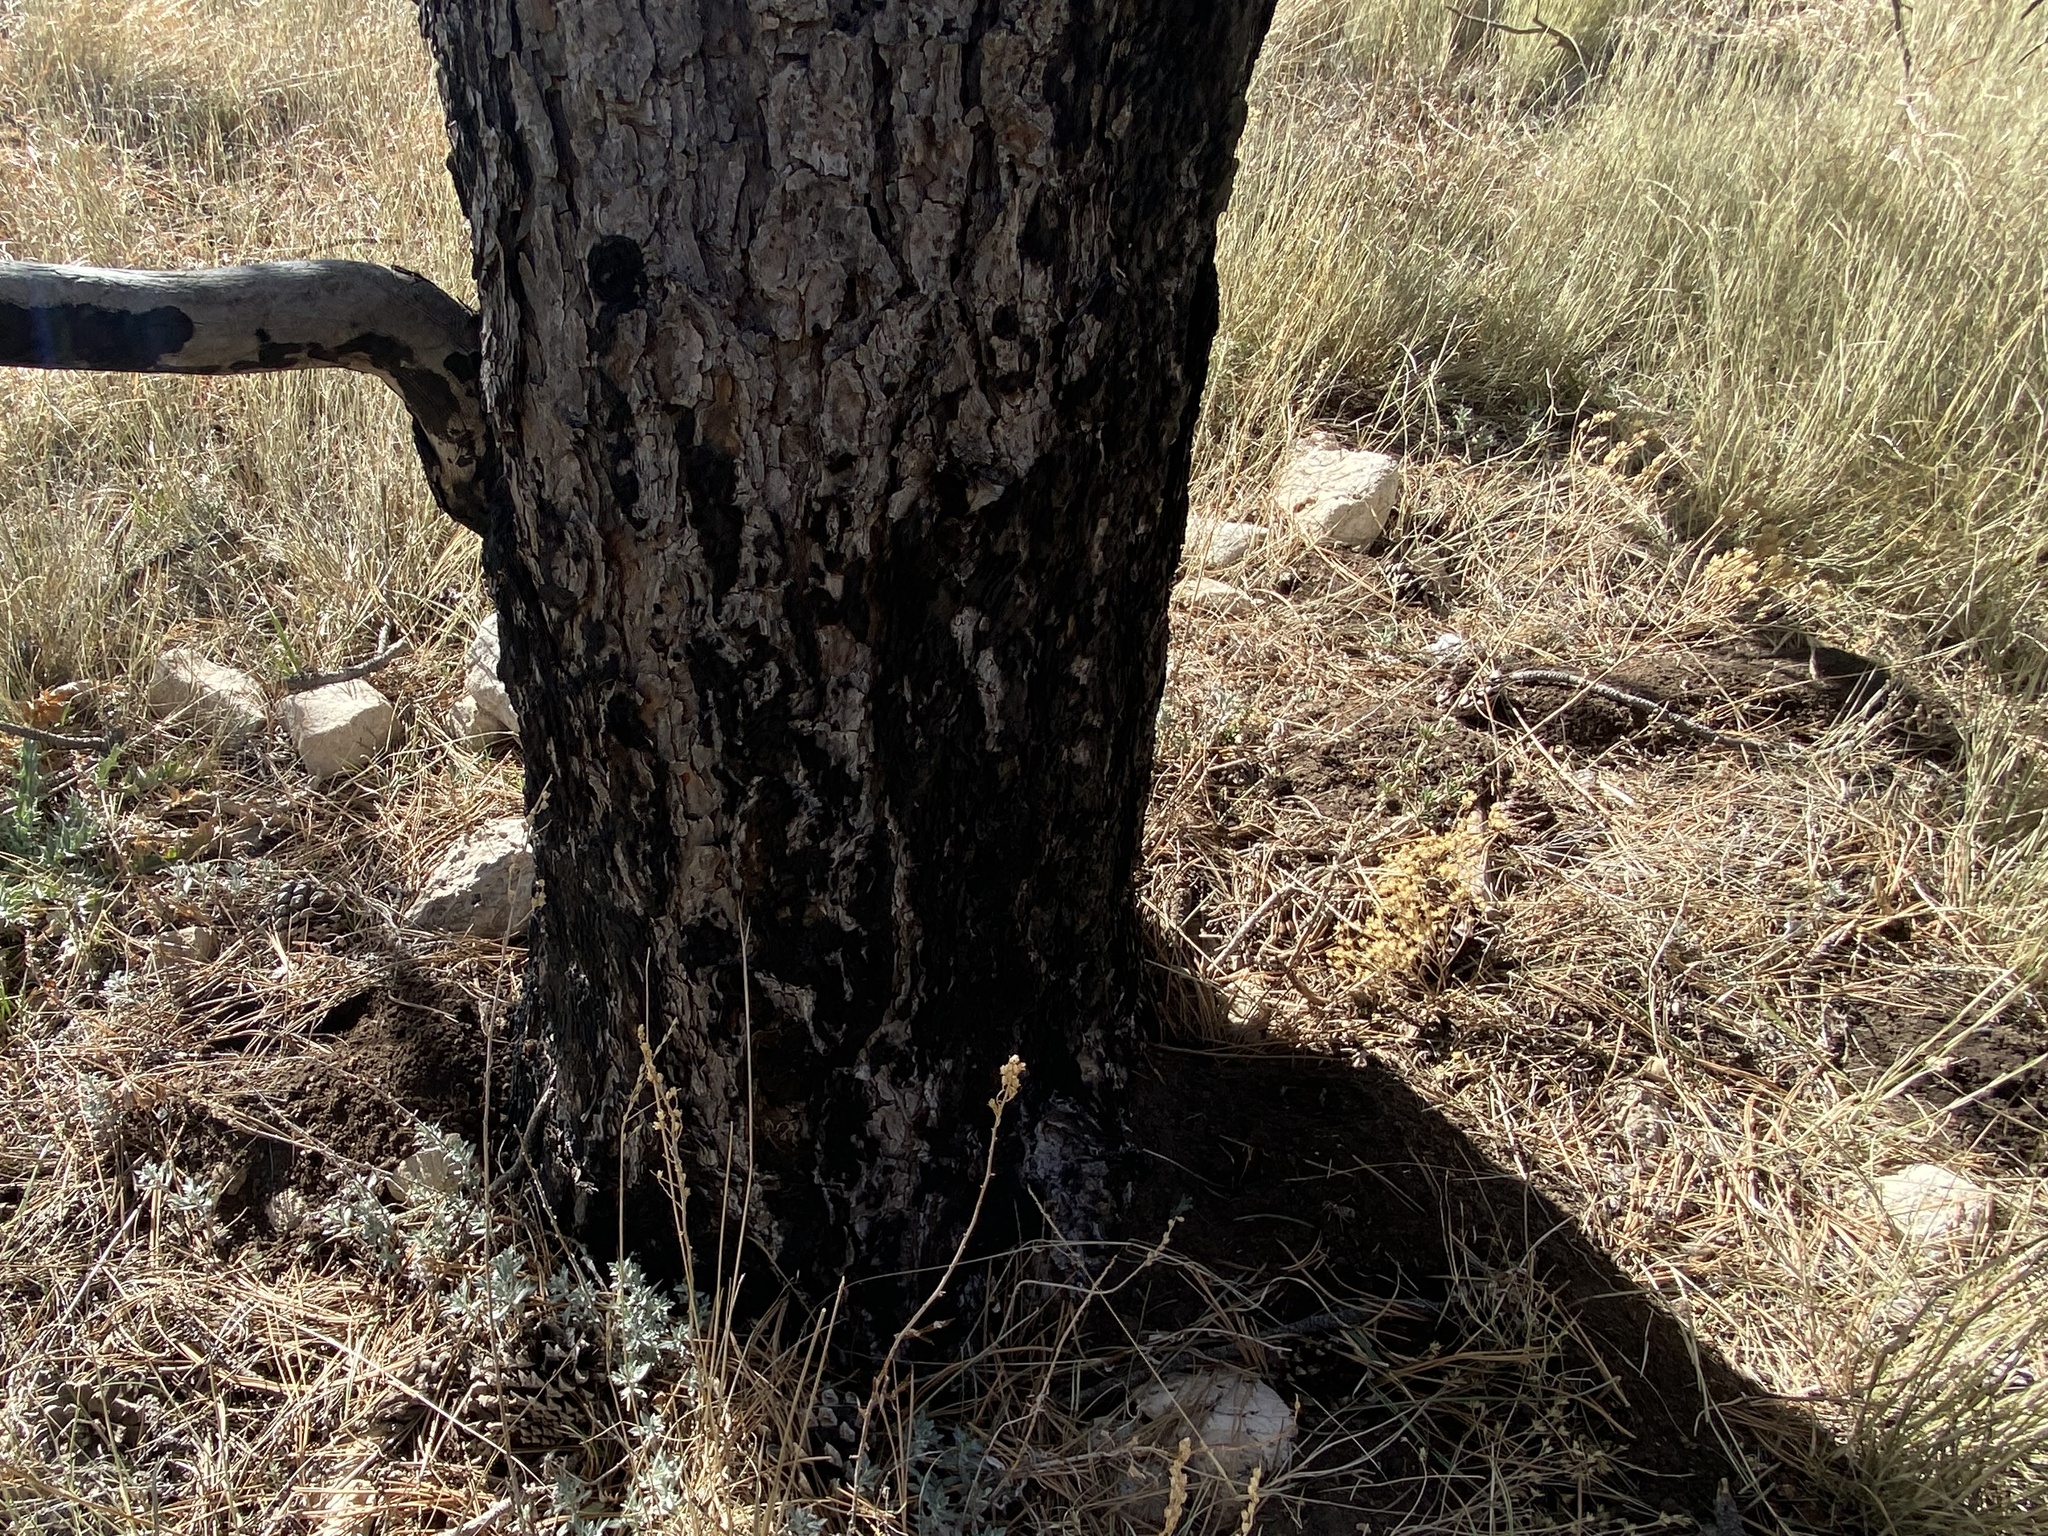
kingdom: Animalia
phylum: Chordata
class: Mammalia
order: Rodentia
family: Geomyidae
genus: Thomomys
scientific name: Thomomys bottae
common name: Botta's pocket gopher
